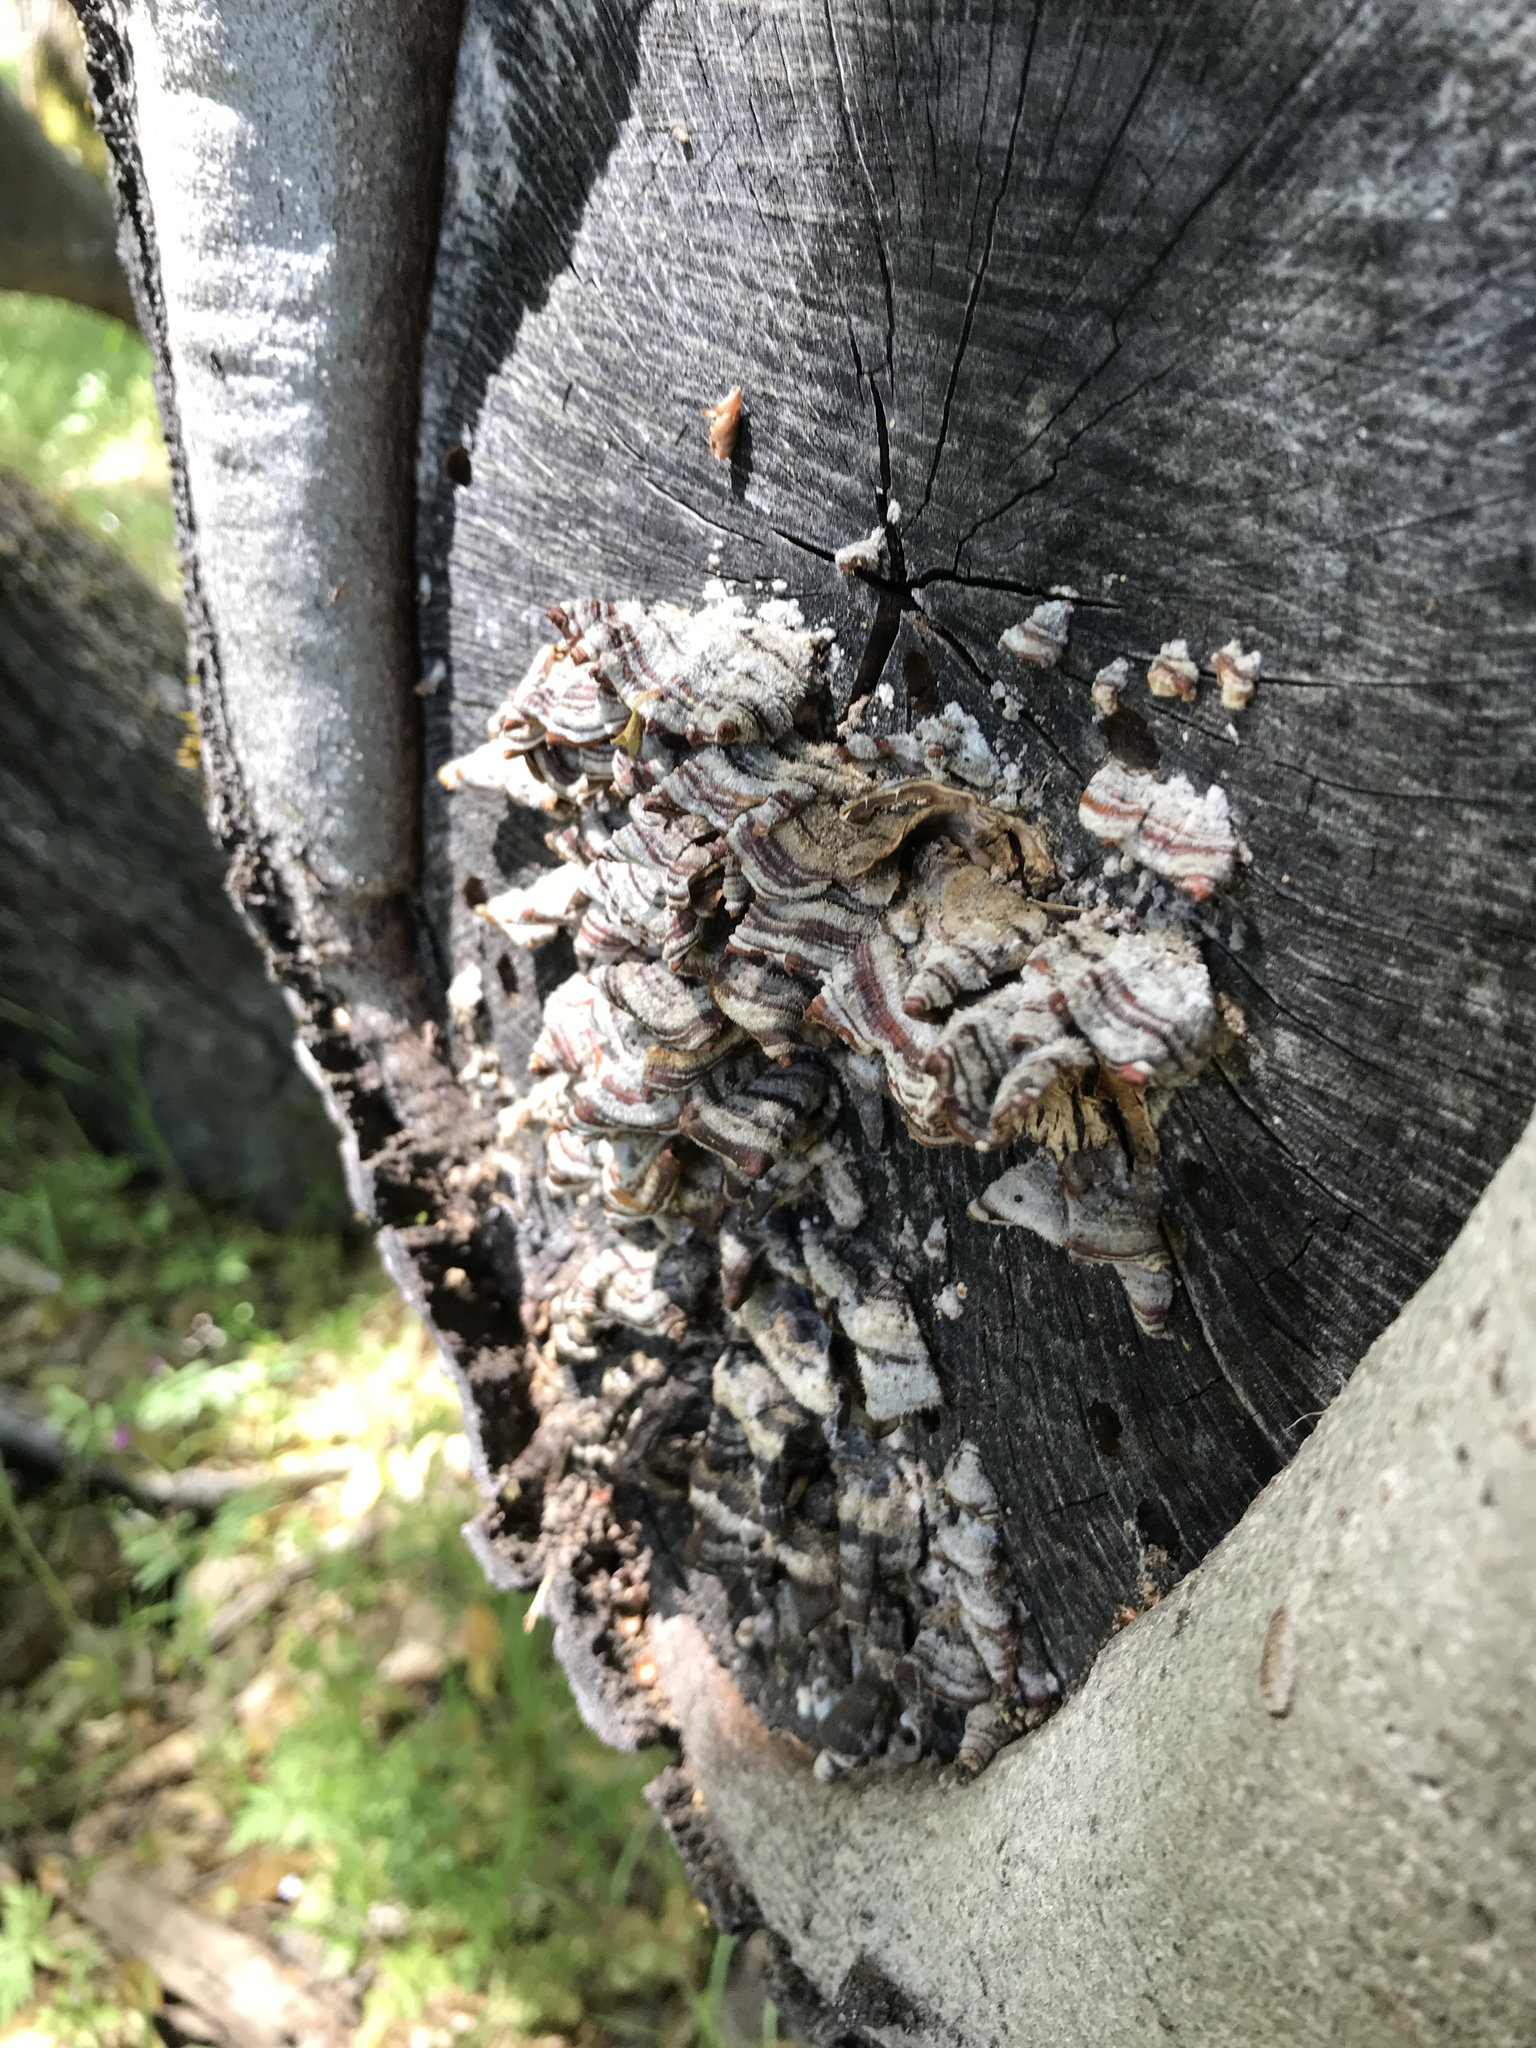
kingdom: Fungi
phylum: Basidiomycota
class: Agaricomycetes
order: Polyporales
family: Polyporaceae
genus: Trametes
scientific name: Trametes versicolor
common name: Turkeytail
